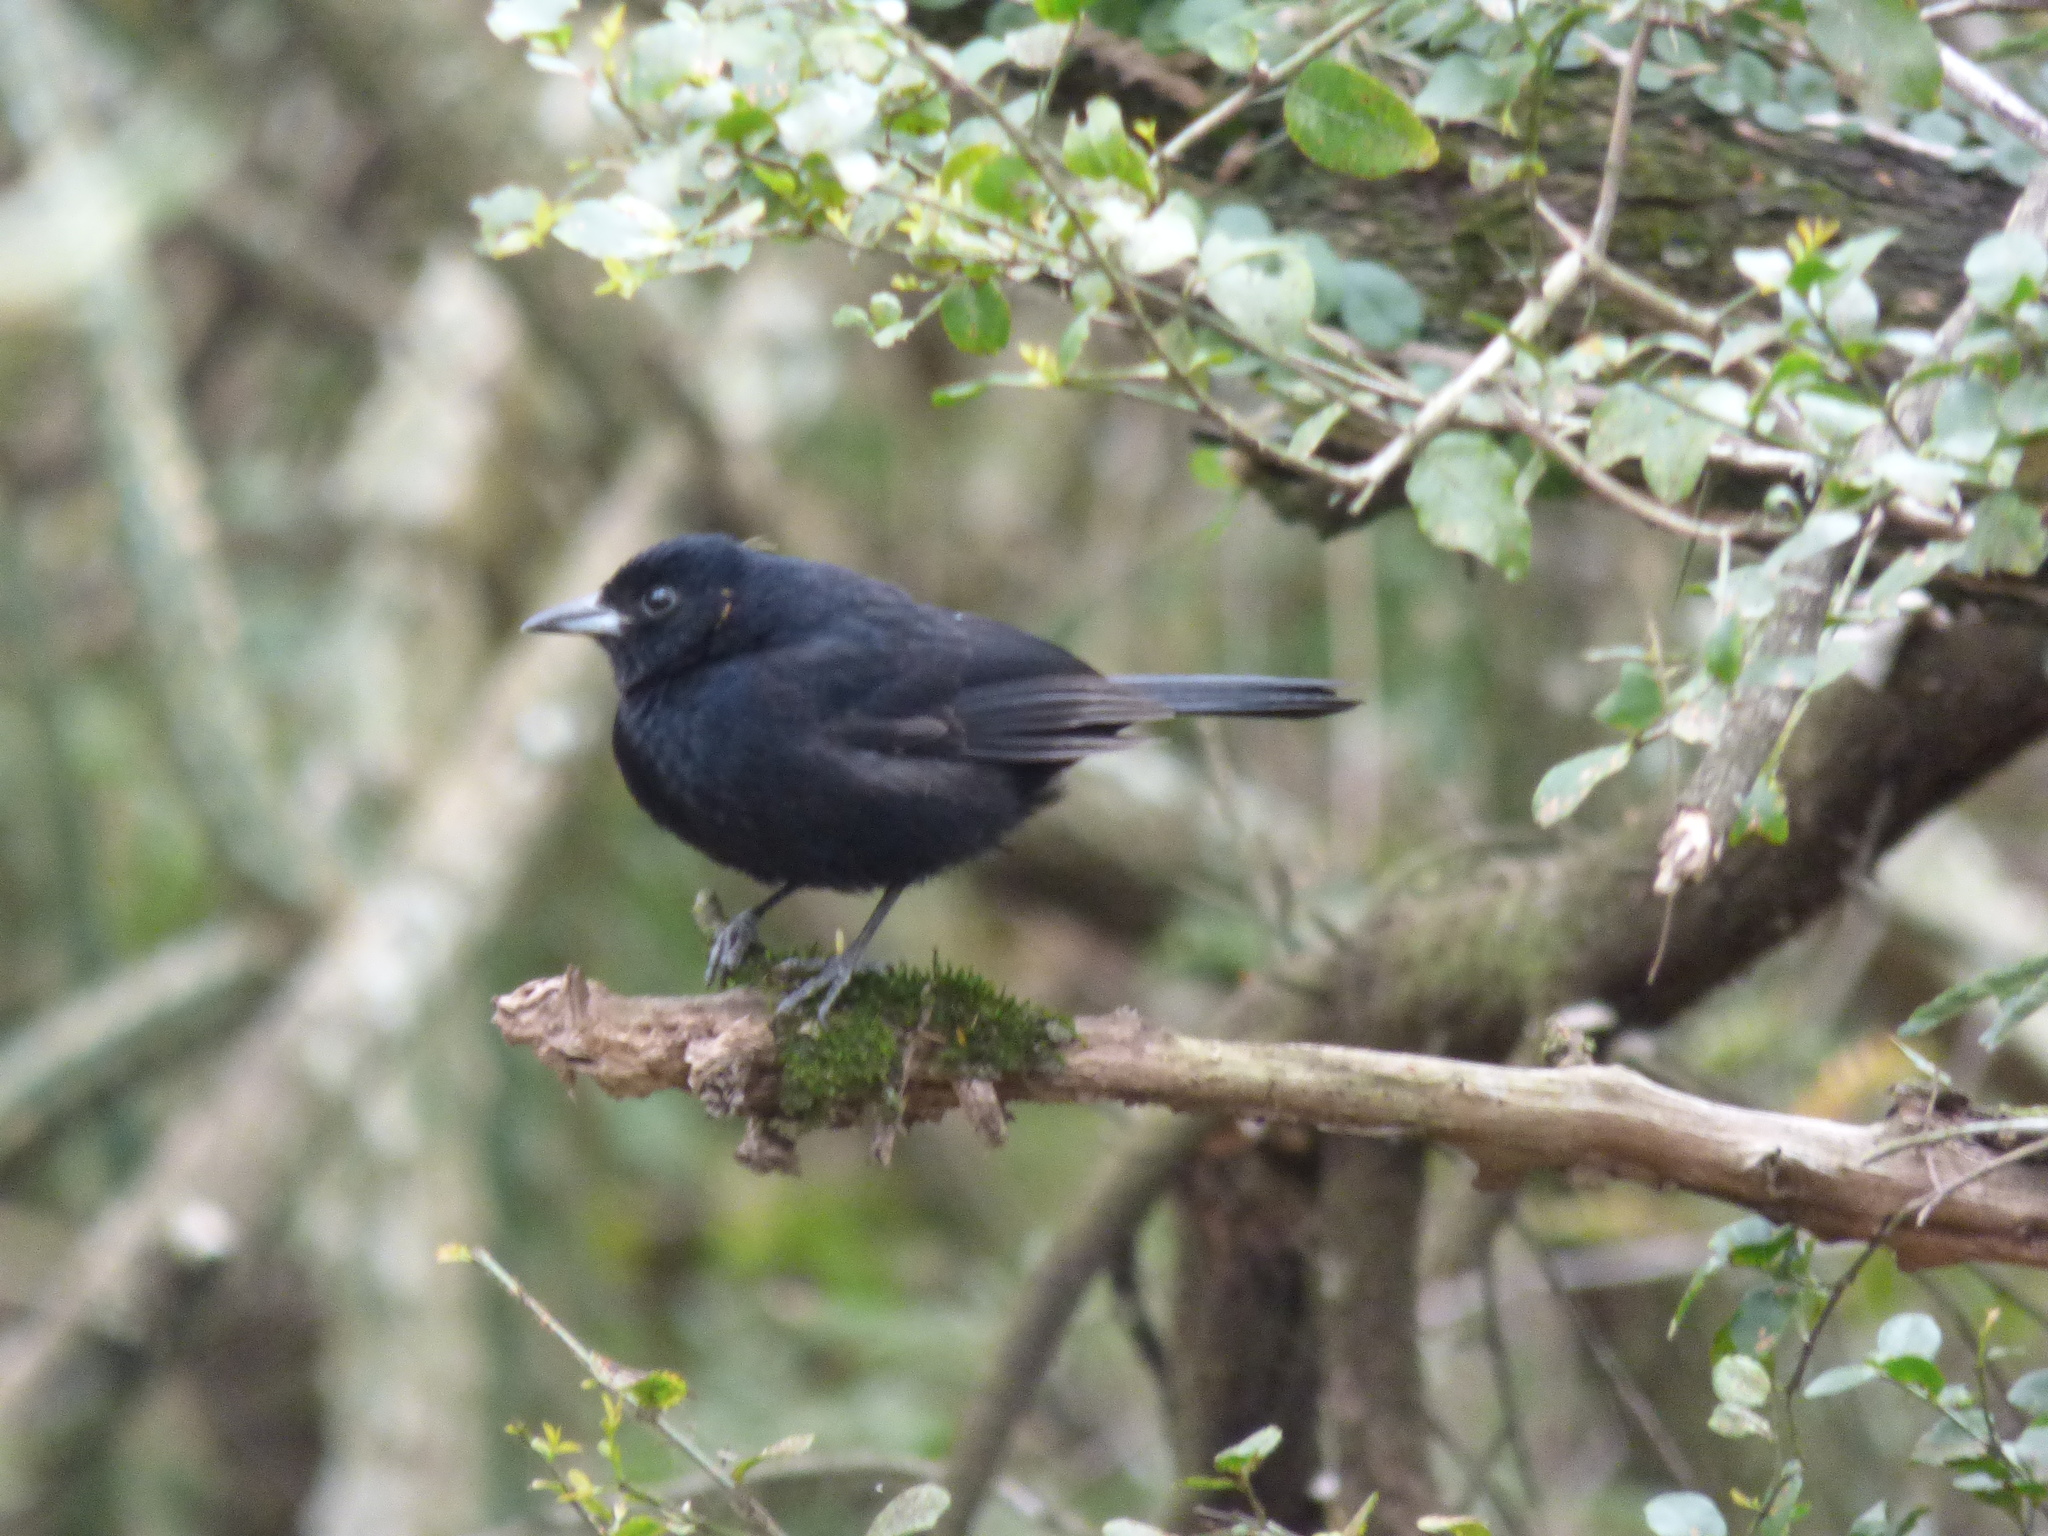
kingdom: Animalia
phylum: Chordata
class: Aves
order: Passeriformes
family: Thraupidae
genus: Tachyphonus
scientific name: Tachyphonus rufus
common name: White-lined tanager
